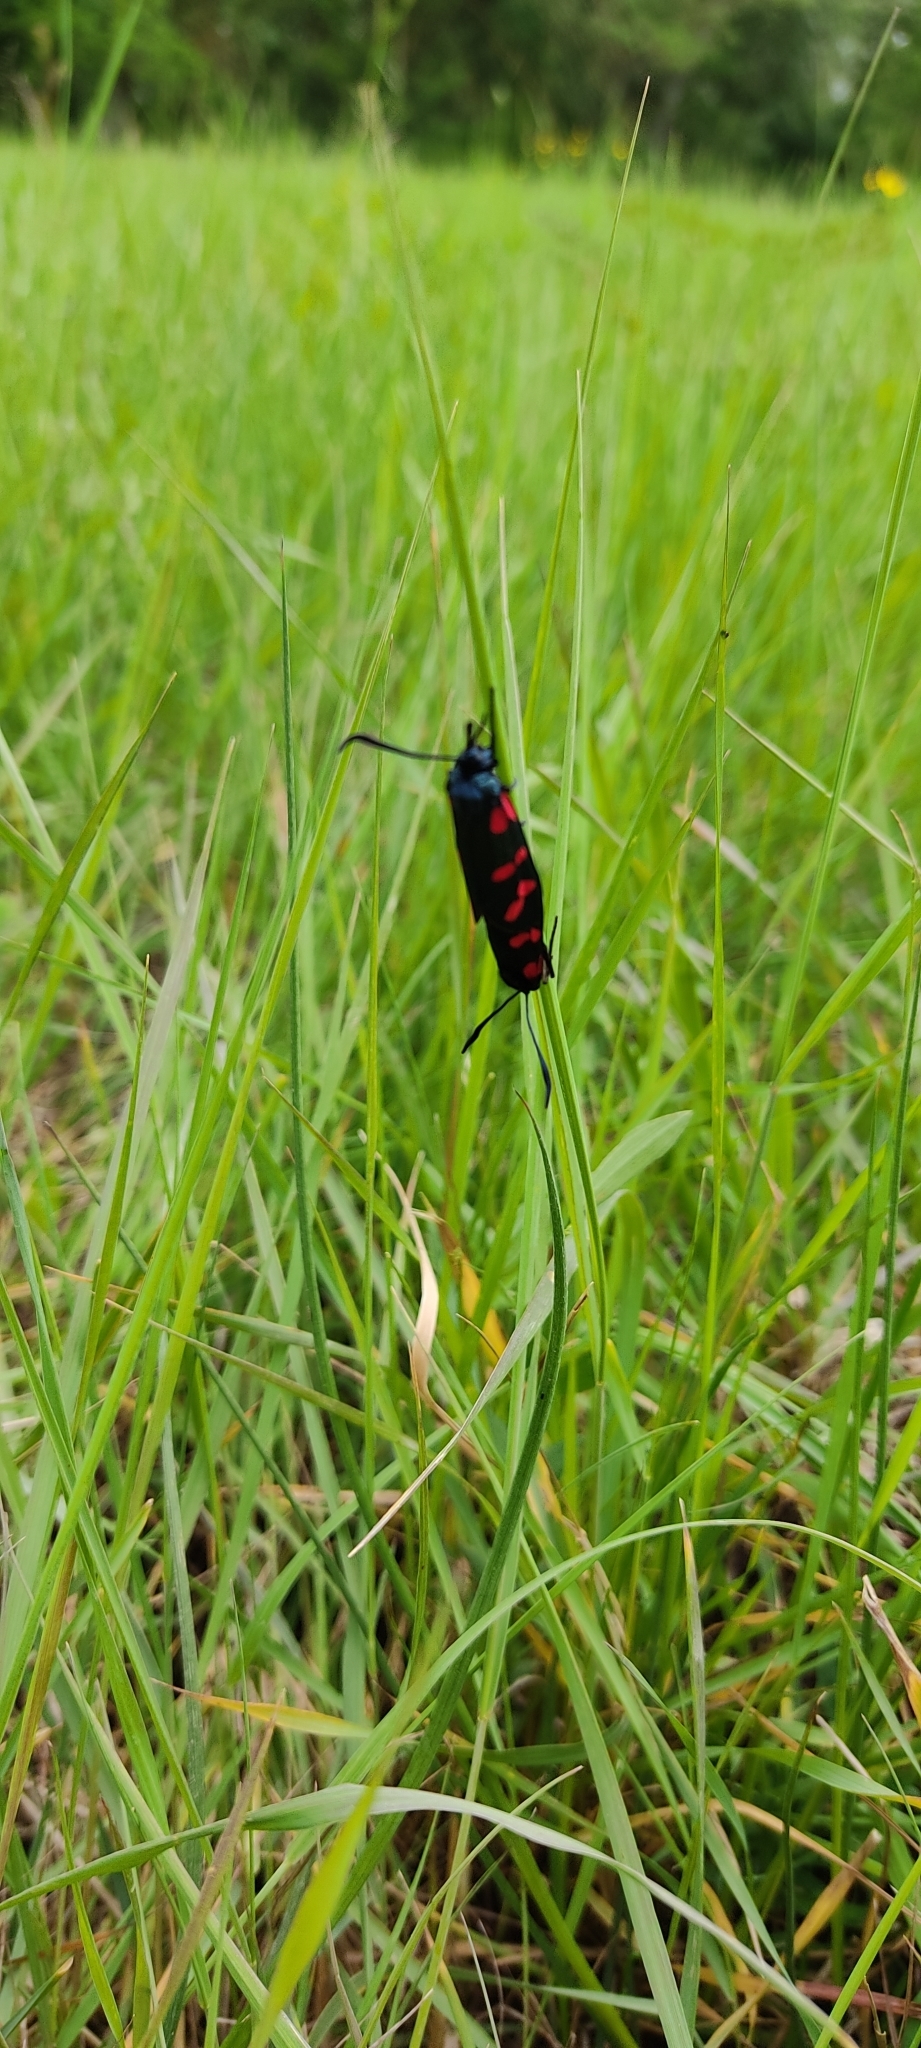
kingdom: Animalia
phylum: Arthropoda
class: Insecta
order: Lepidoptera
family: Zygaenidae
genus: Zygaena
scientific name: Zygaena filipendulae
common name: Six-spot burnet
